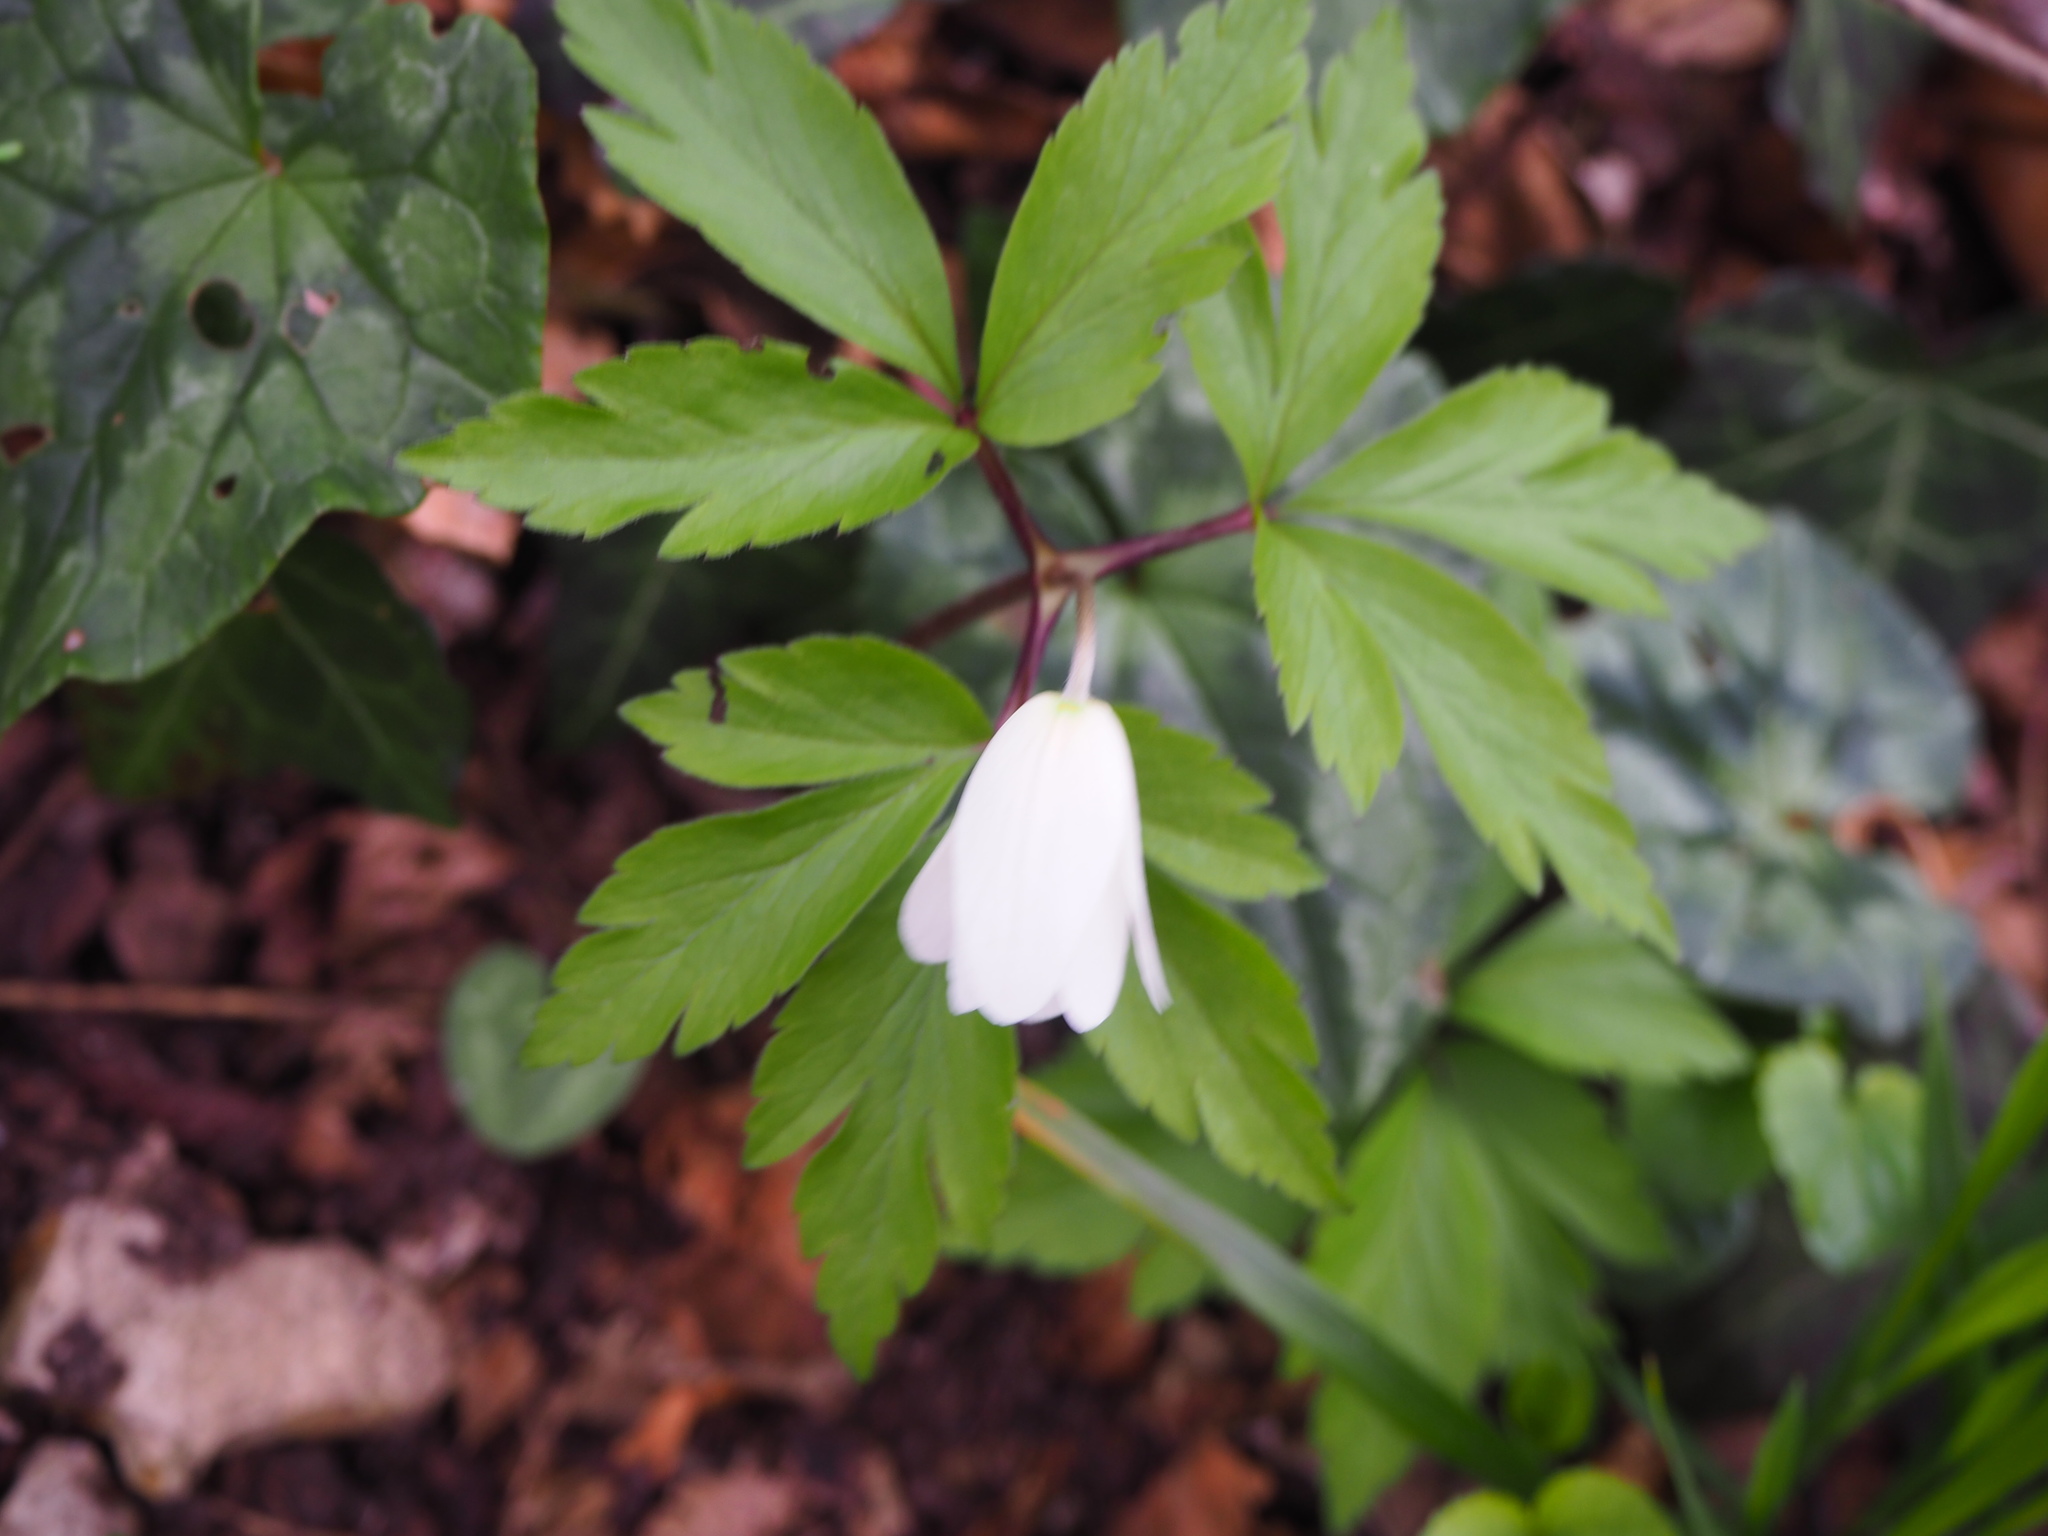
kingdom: Plantae
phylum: Tracheophyta
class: Magnoliopsida
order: Ranunculales
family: Ranunculaceae
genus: Anemone
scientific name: Anemone nemorosa
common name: Wood anemone
